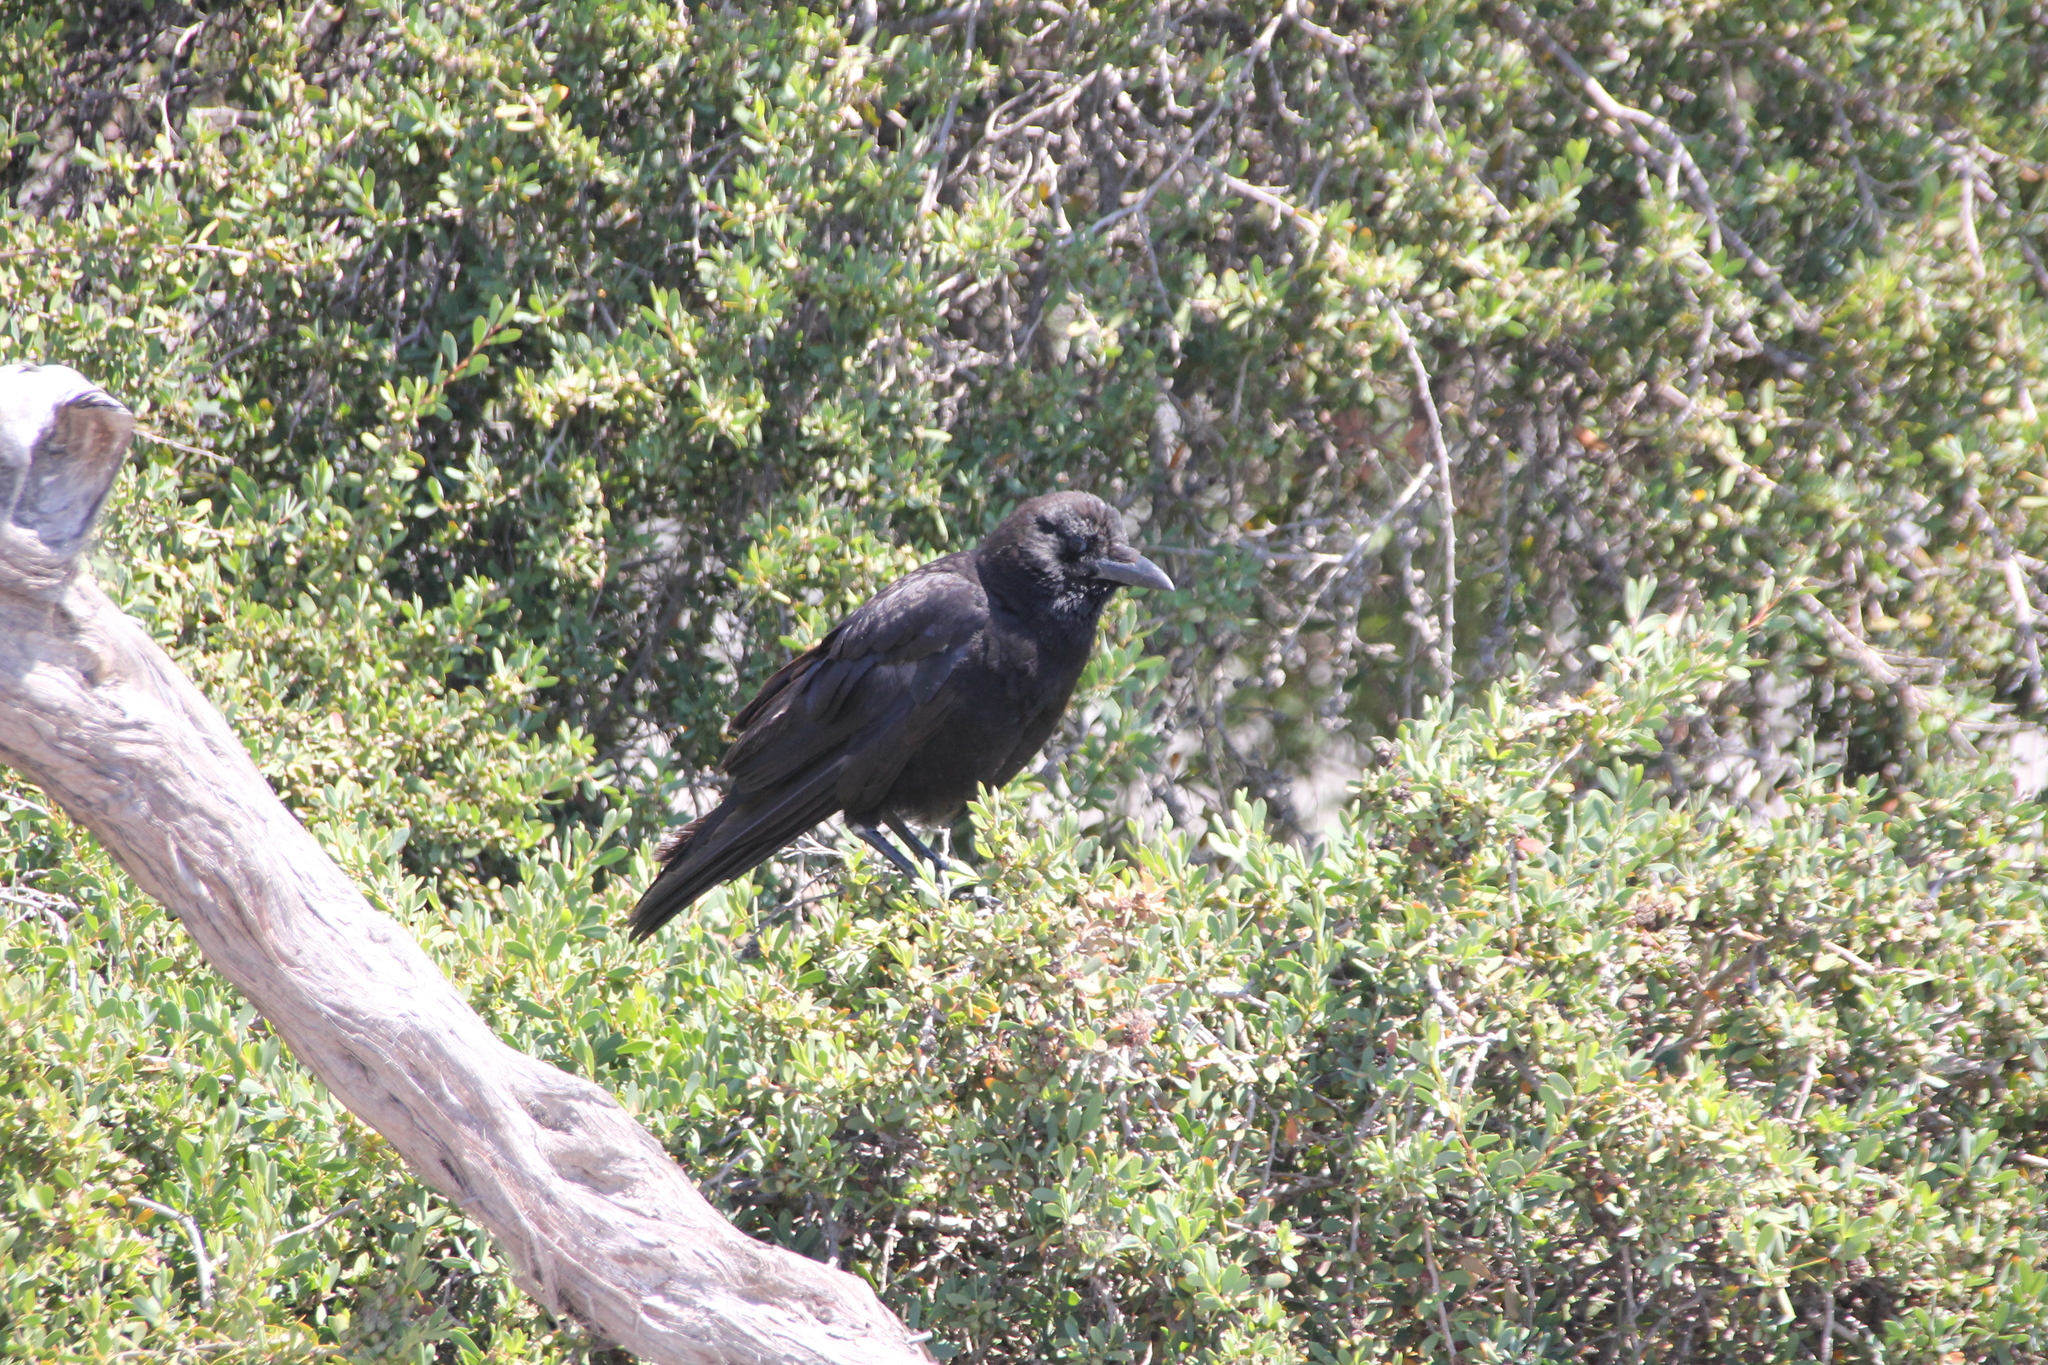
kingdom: Animalia
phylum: Chordata
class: Aves
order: Passeriformes
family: Corvidae
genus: Corvus
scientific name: Corvus brachyrhynchos
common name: American crow
